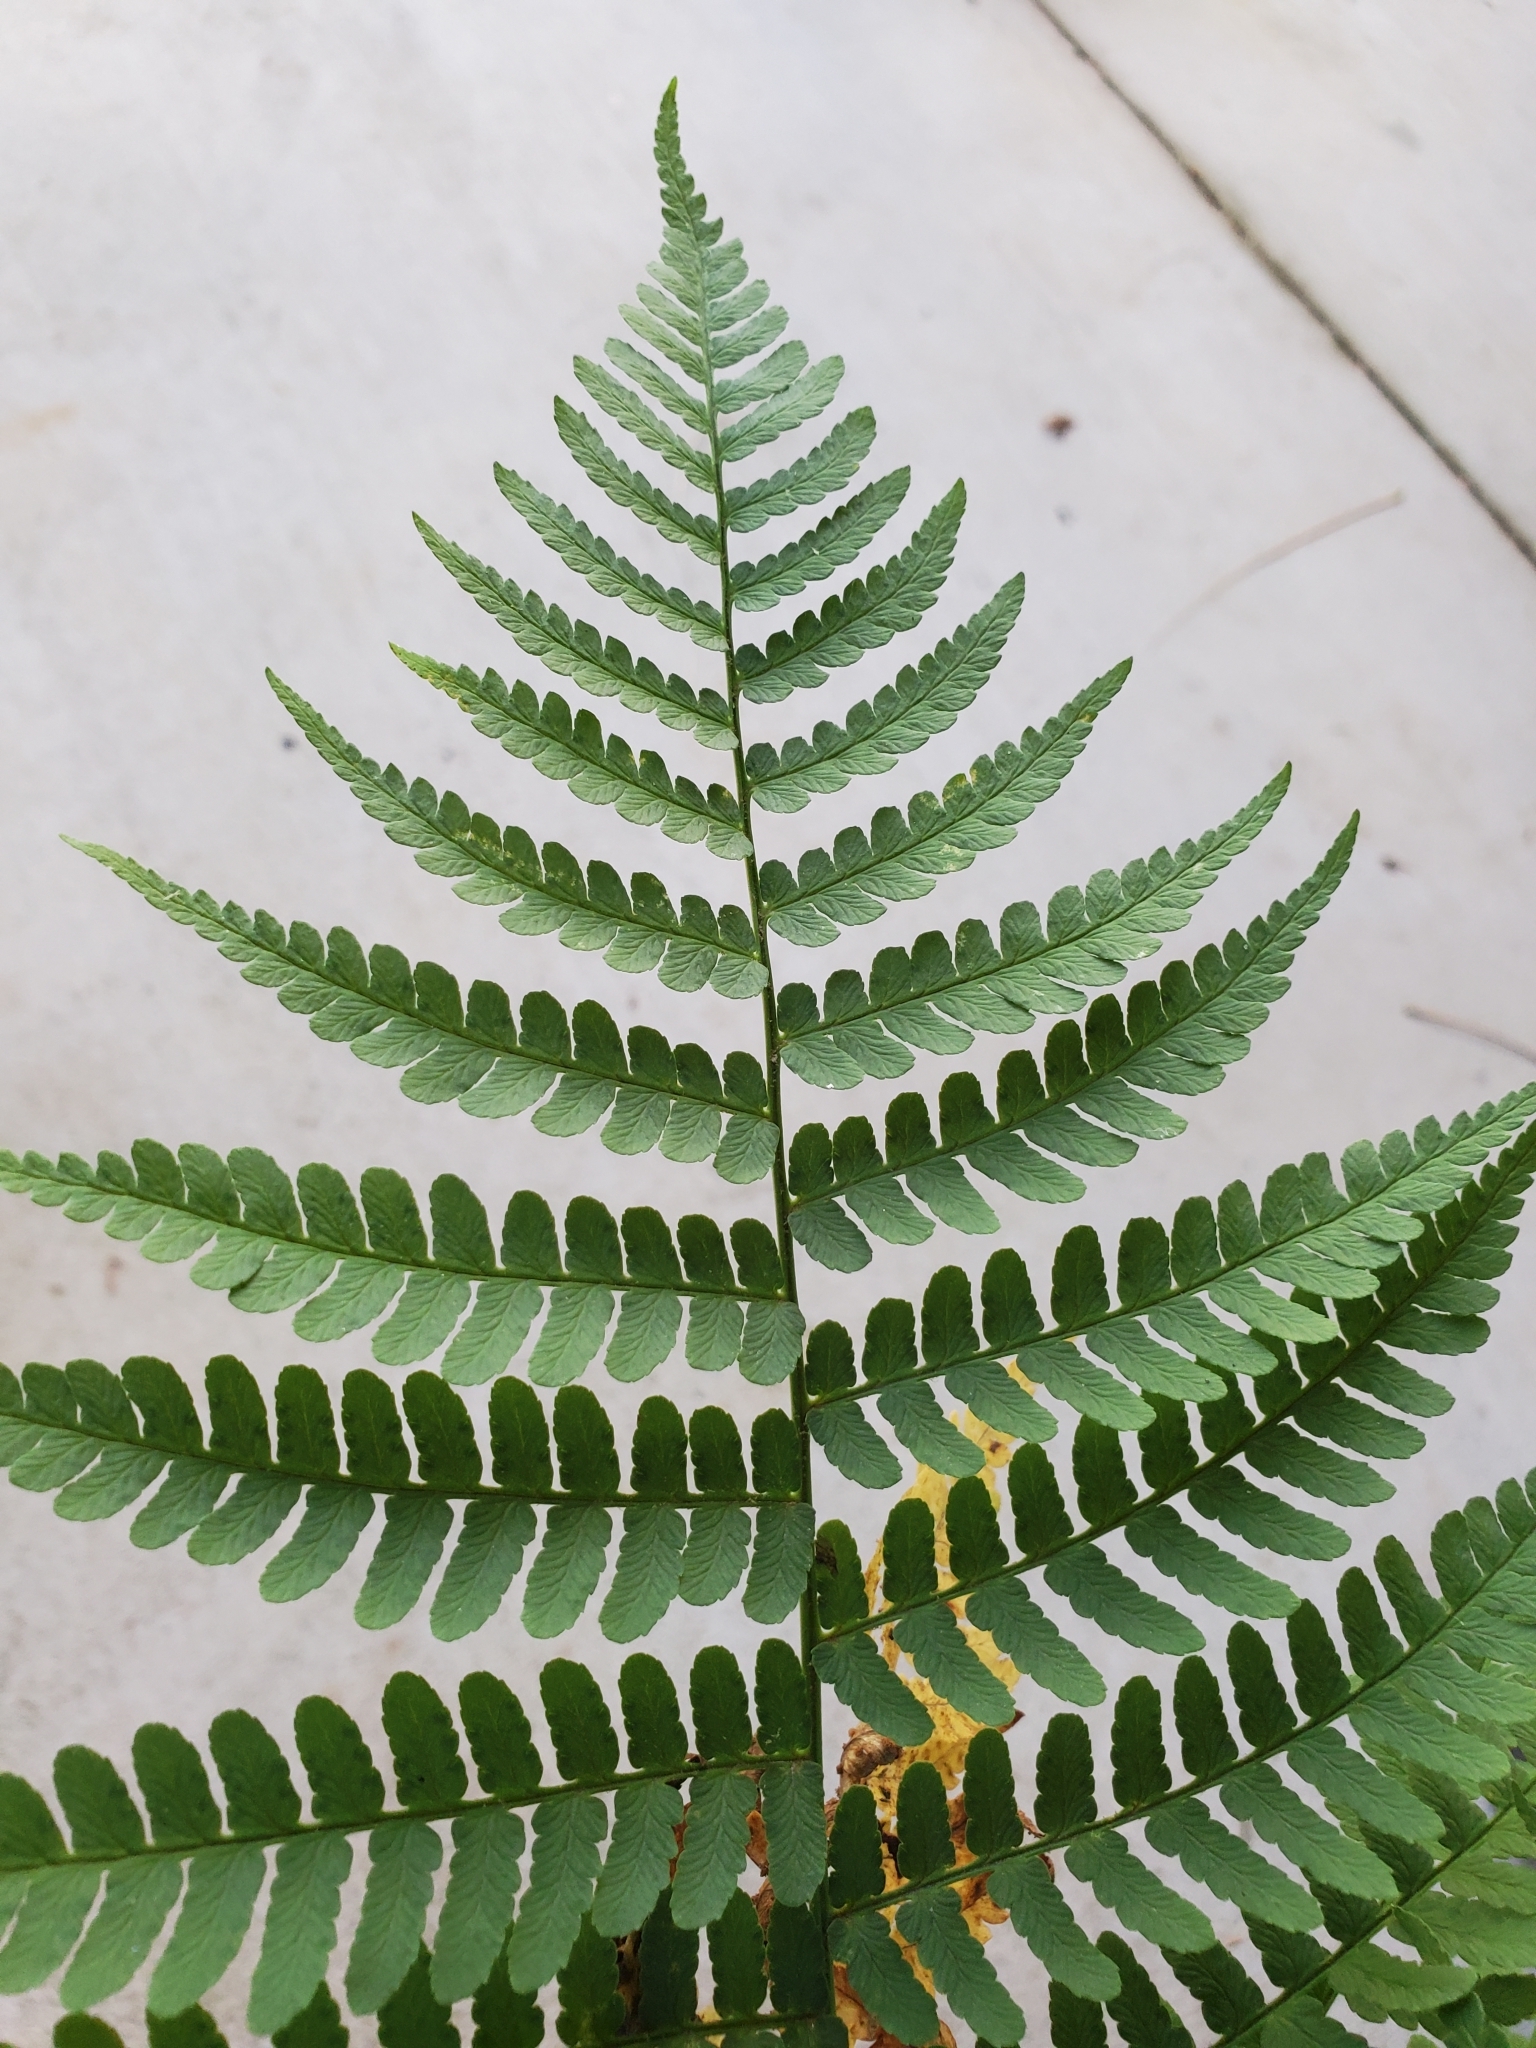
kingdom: Plantae
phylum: Tracheophyta
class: Polypodiopsida
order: Polypodiales
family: Dryopteridaceae
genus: Dryopteris
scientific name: Dryopteris marginalis
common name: Marginal wood fern
